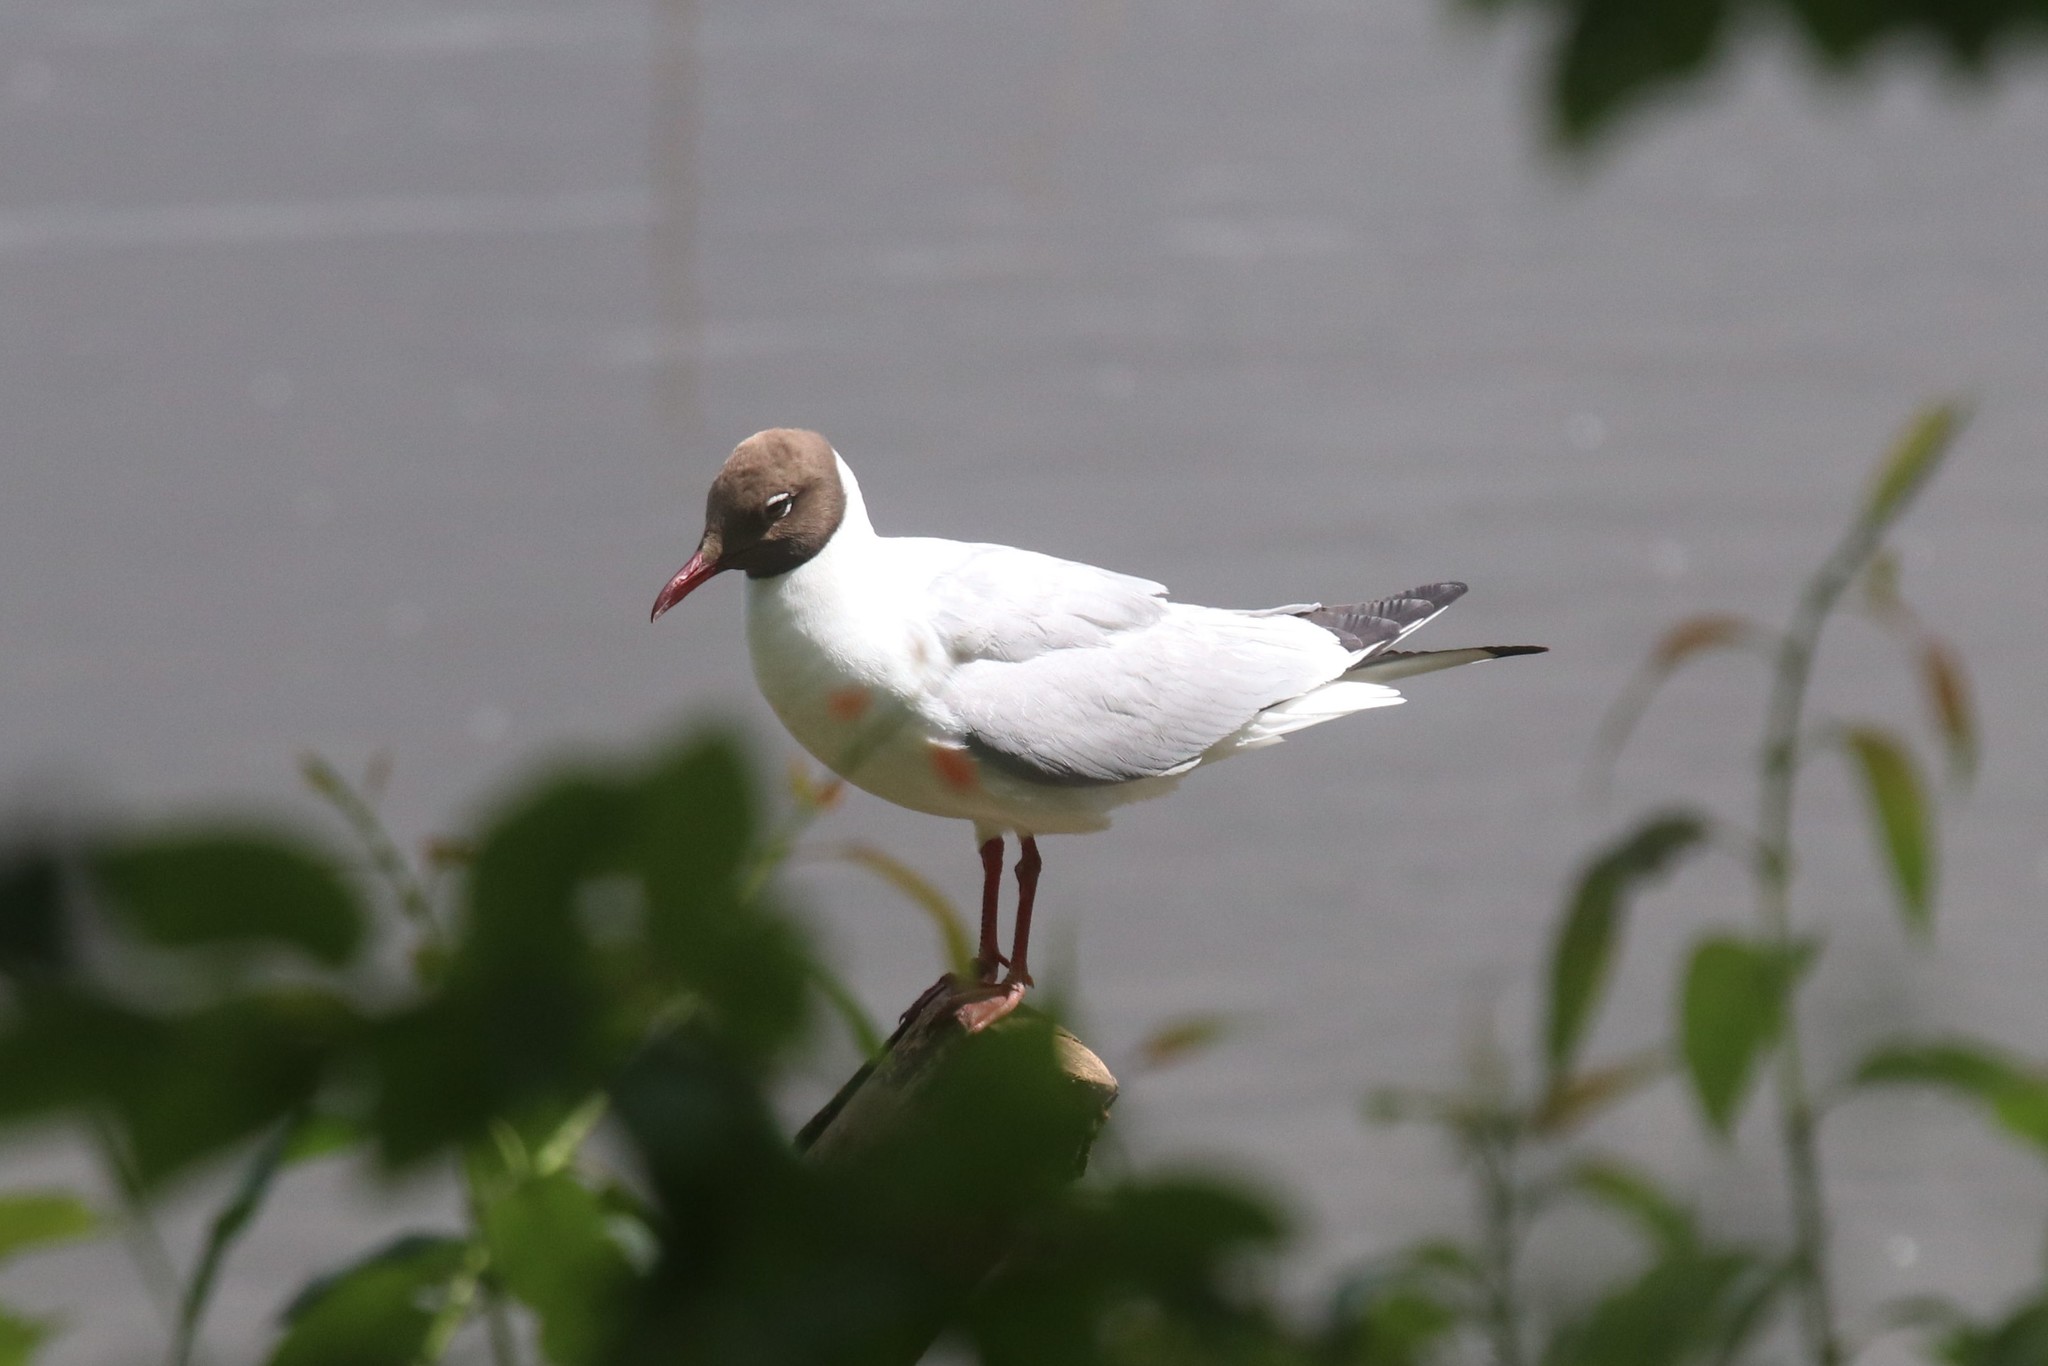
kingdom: Animalia
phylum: Chordata
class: Aves
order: Charadriiformes
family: Laridae
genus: Chroicocephalus
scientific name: Chroicocephalus ridibundus
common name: Black-headed gull
